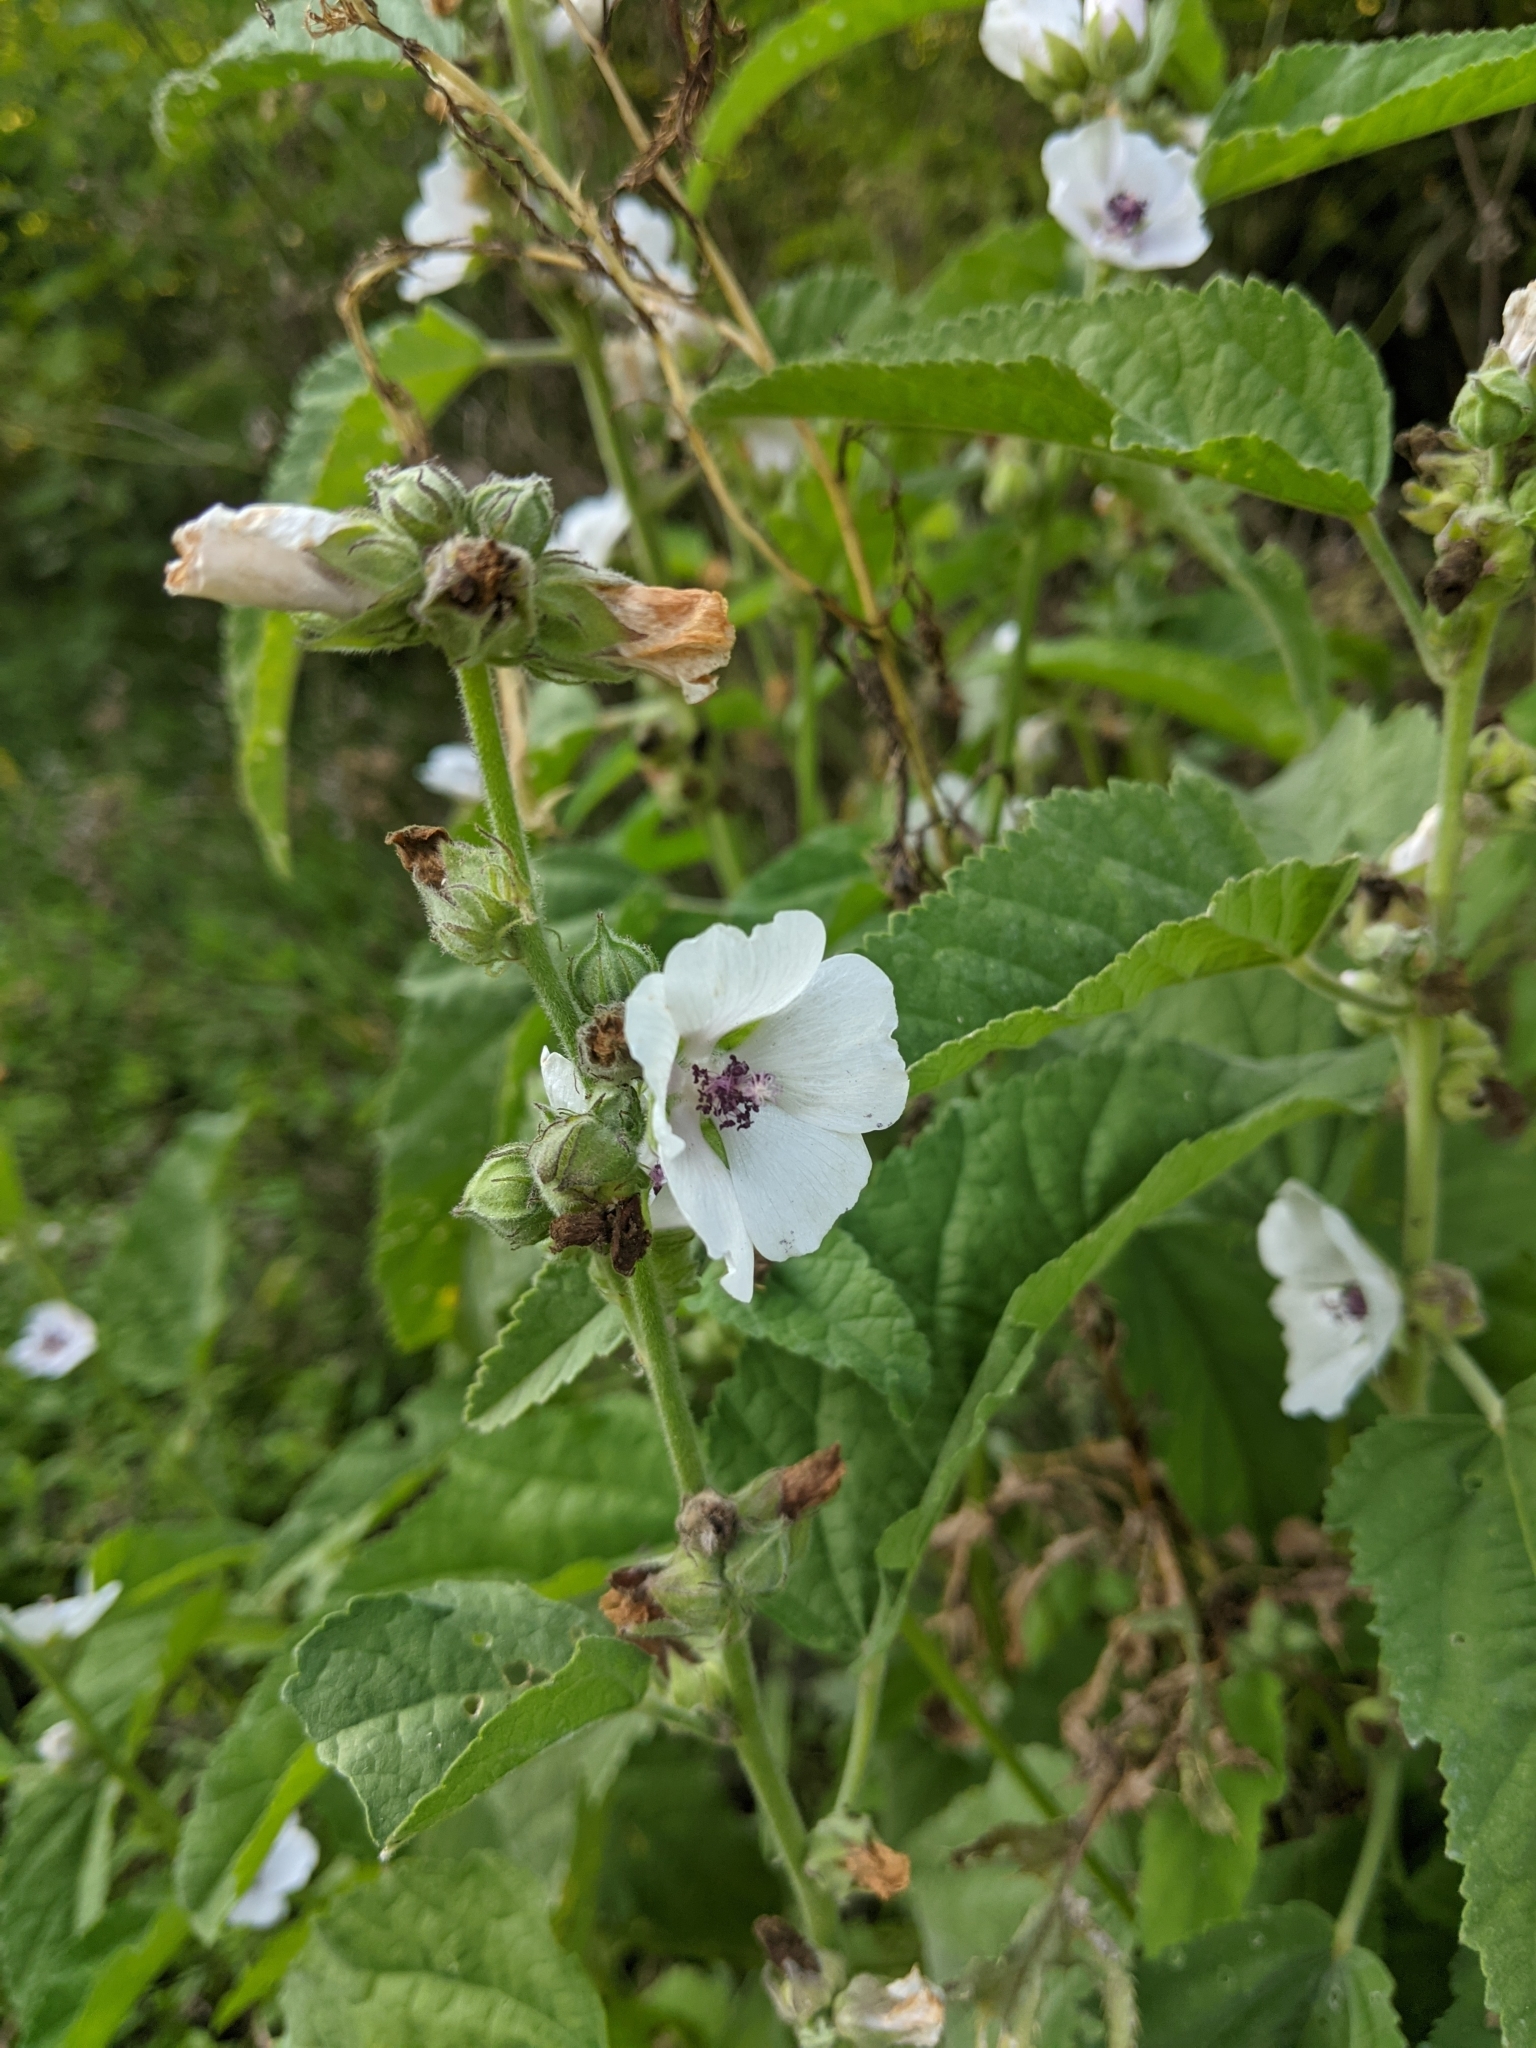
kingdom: Plantae
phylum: Tracheophyta
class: Magnoliopsida
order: Malvales
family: Malvaceae
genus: Althaea
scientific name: Althaea officinalis
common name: Marsh-mallow
